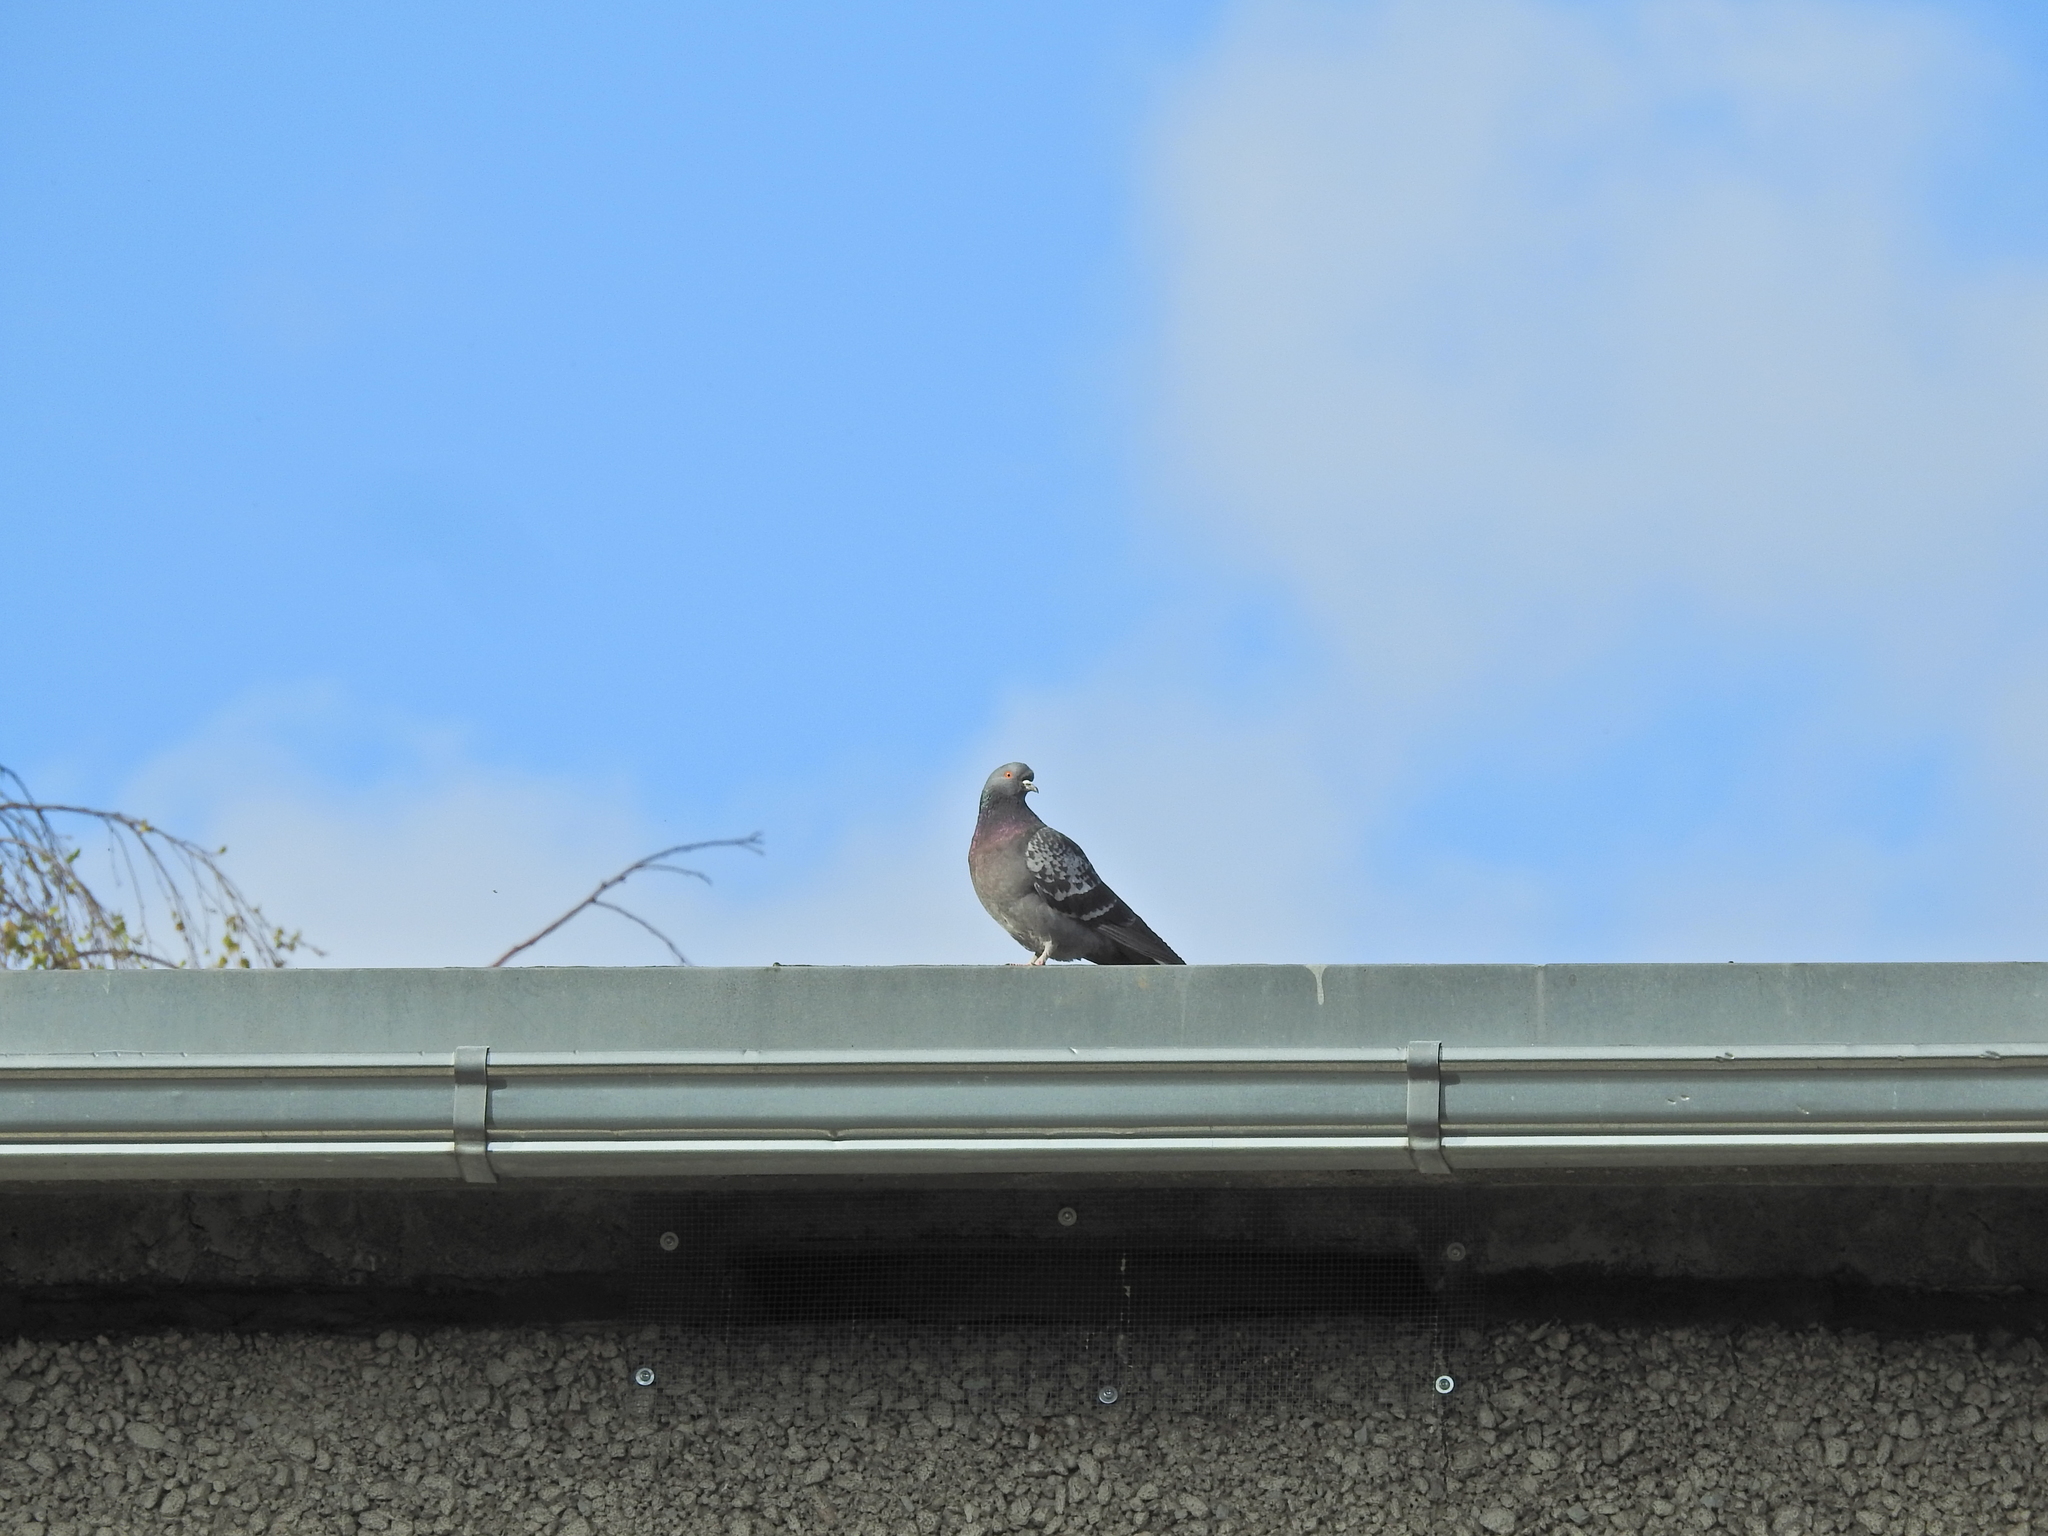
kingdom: Animalia
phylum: Chordata
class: Aves
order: Columbiformes
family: Columbidae
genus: Columba
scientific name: Columba livia
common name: Rock pigeon
